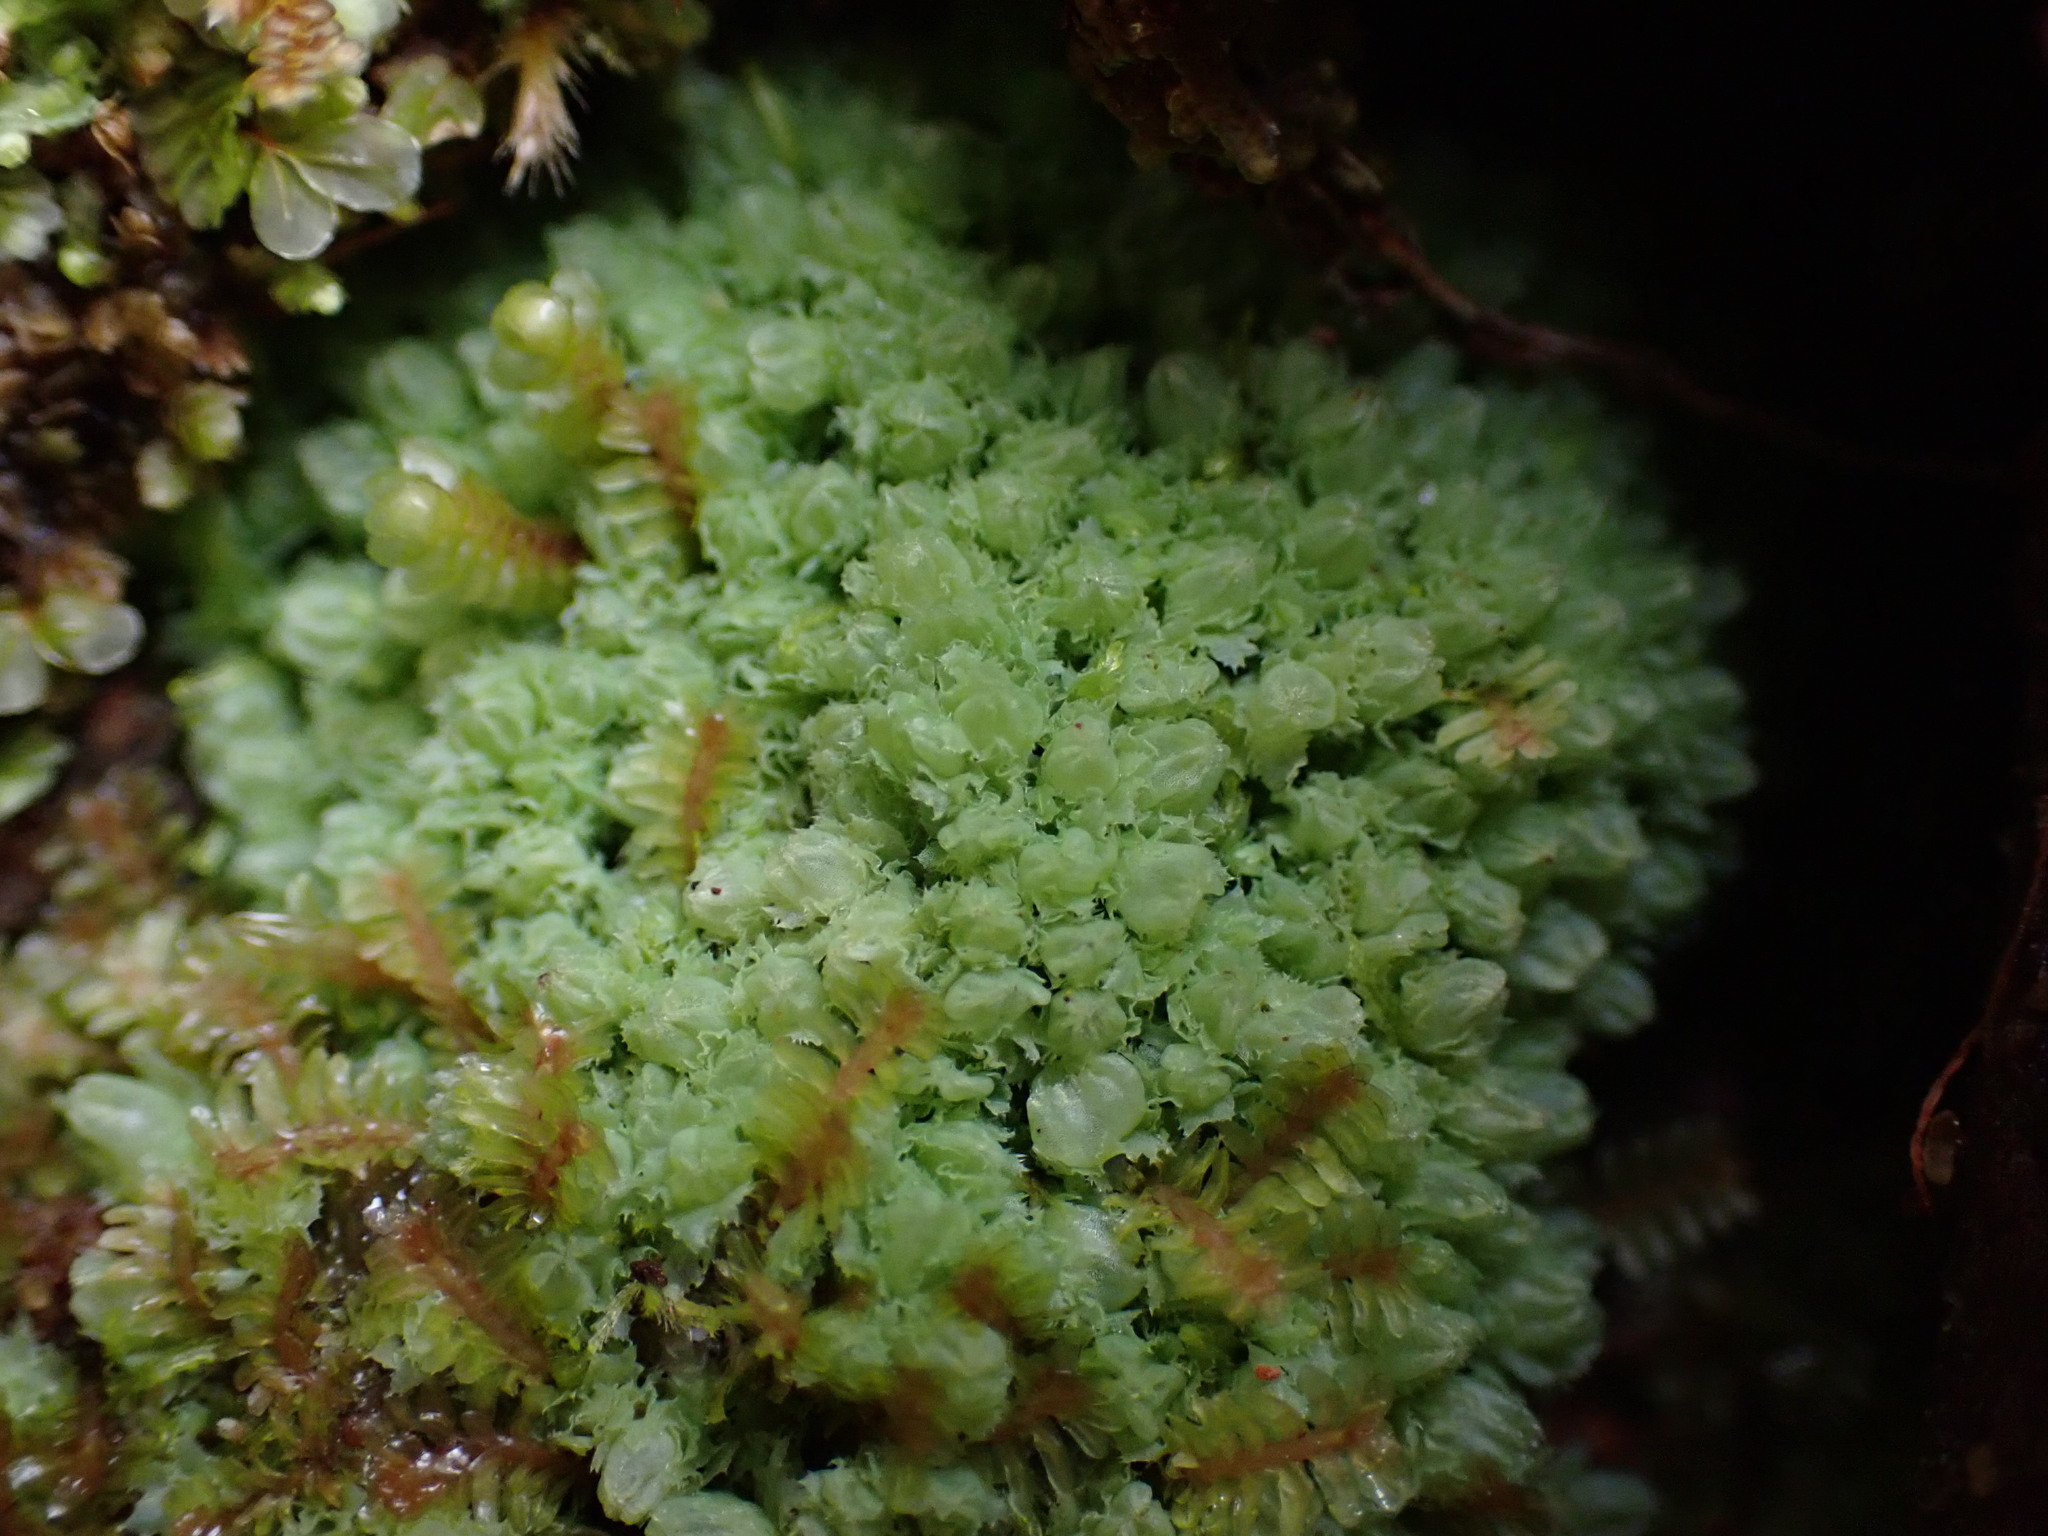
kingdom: Plantae
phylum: Marchantiophyta
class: Jungermanniopsida
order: Jungermanniales
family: Scapaniaceae
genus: Schistochilopsis
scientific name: Schistochilopsis incisa
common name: Jagged notchwort
